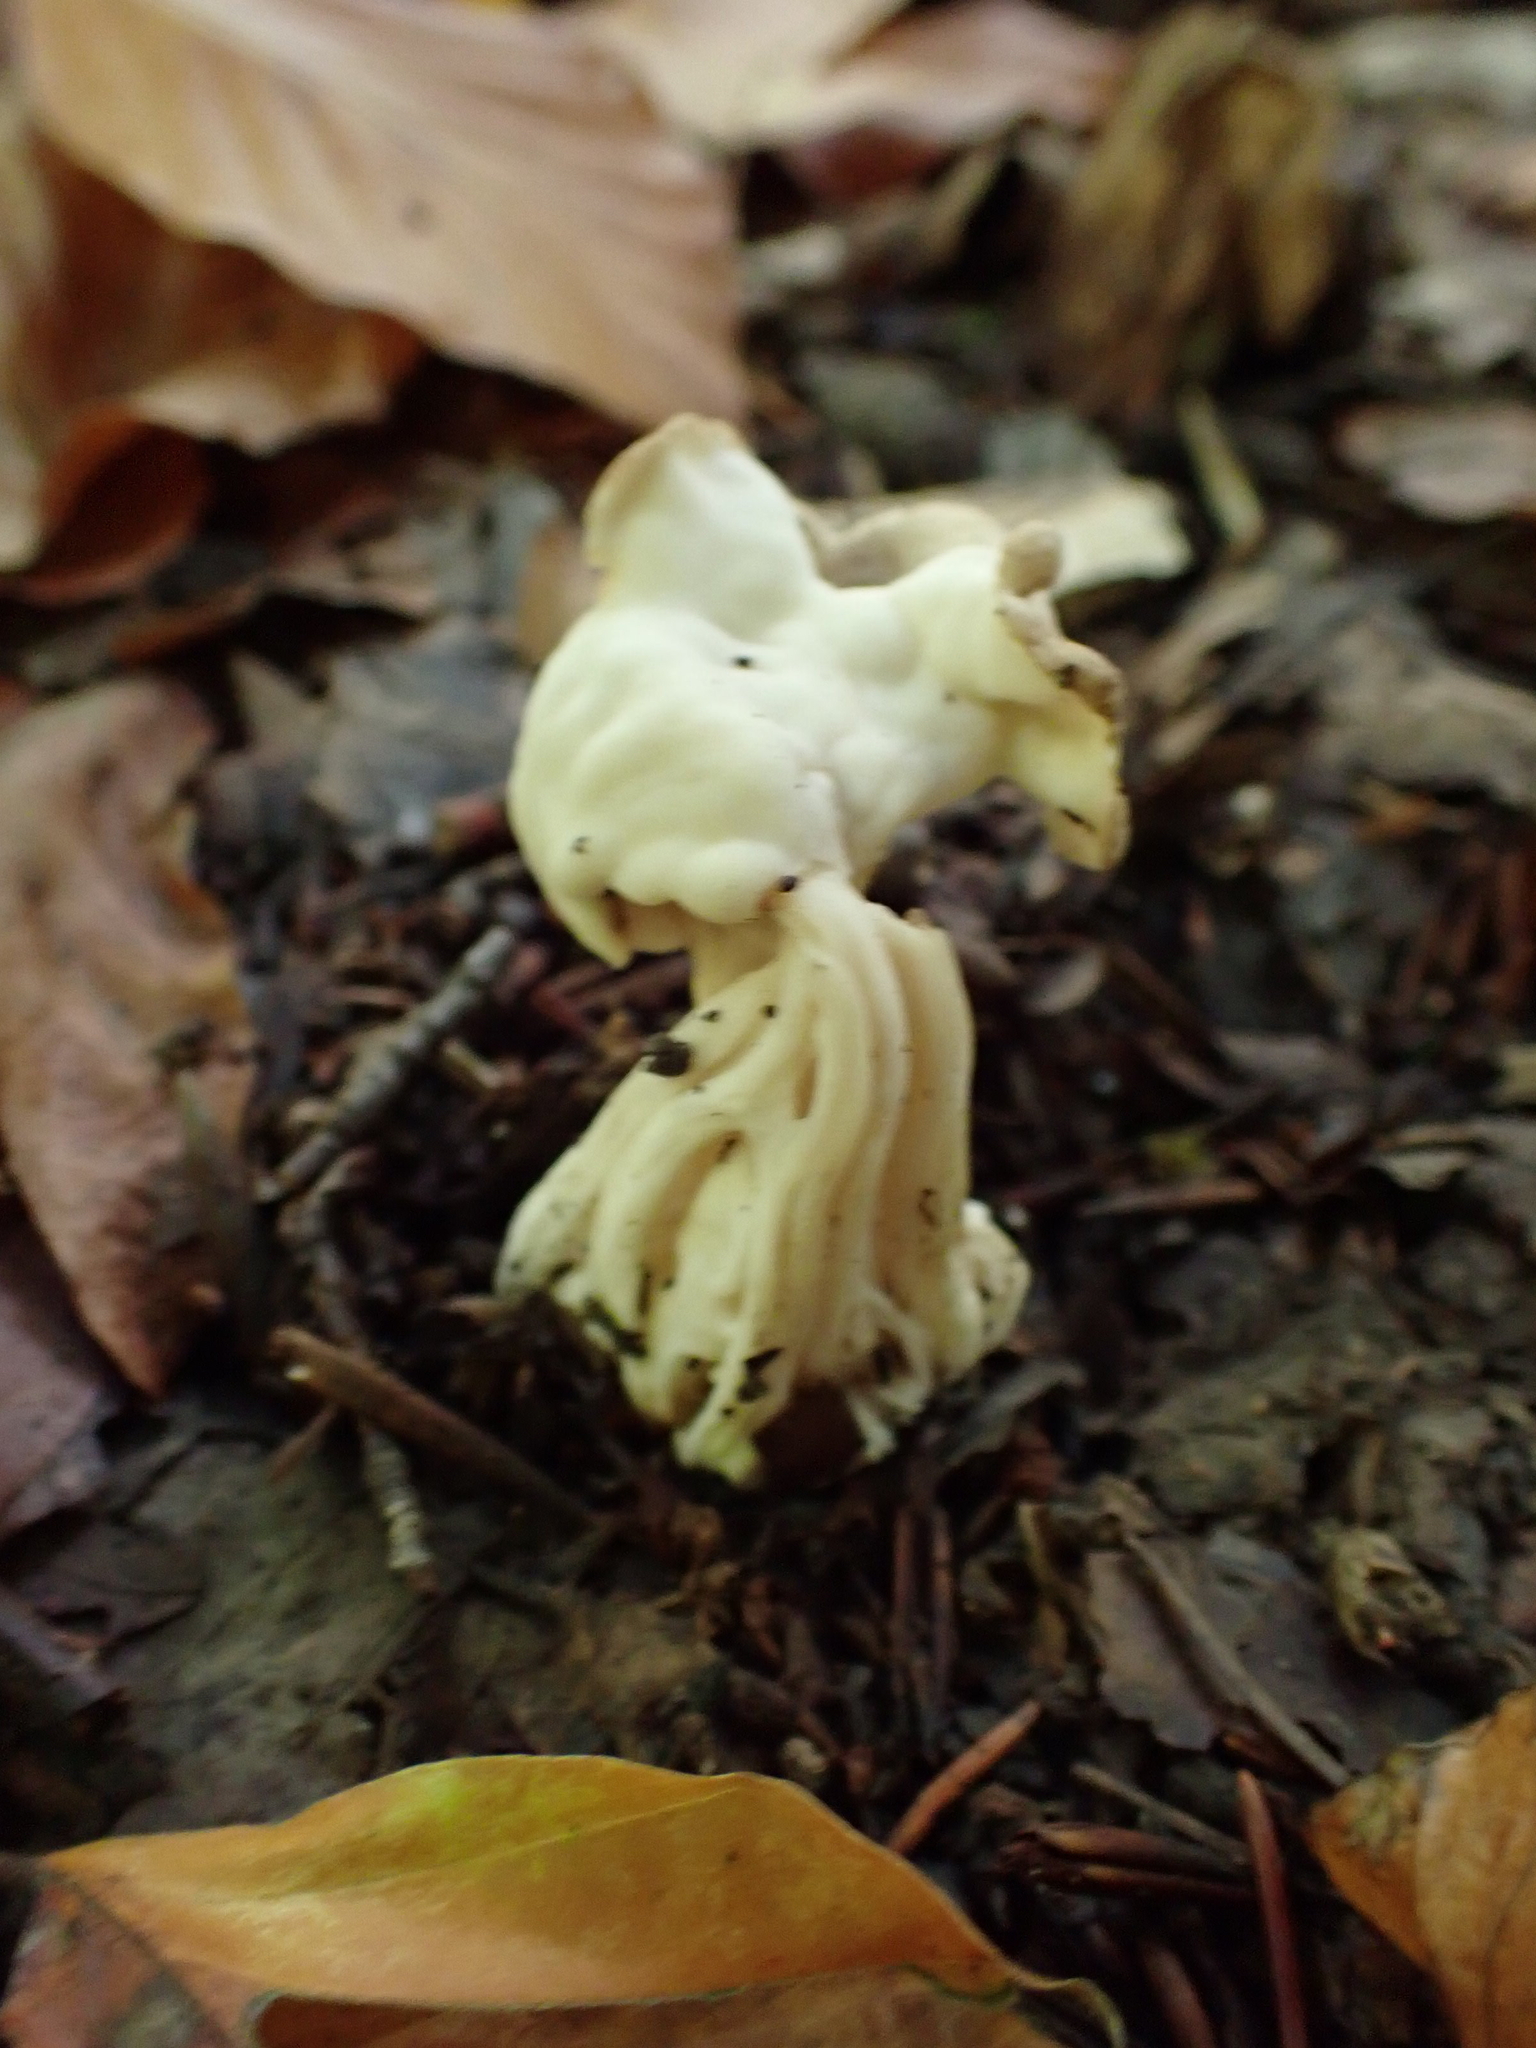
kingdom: Fungi
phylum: Ascomycota
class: Pezizomycetes
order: Pezizales
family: Helvellaceae
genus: Helvella
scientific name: Helvella crispa
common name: White saddle
